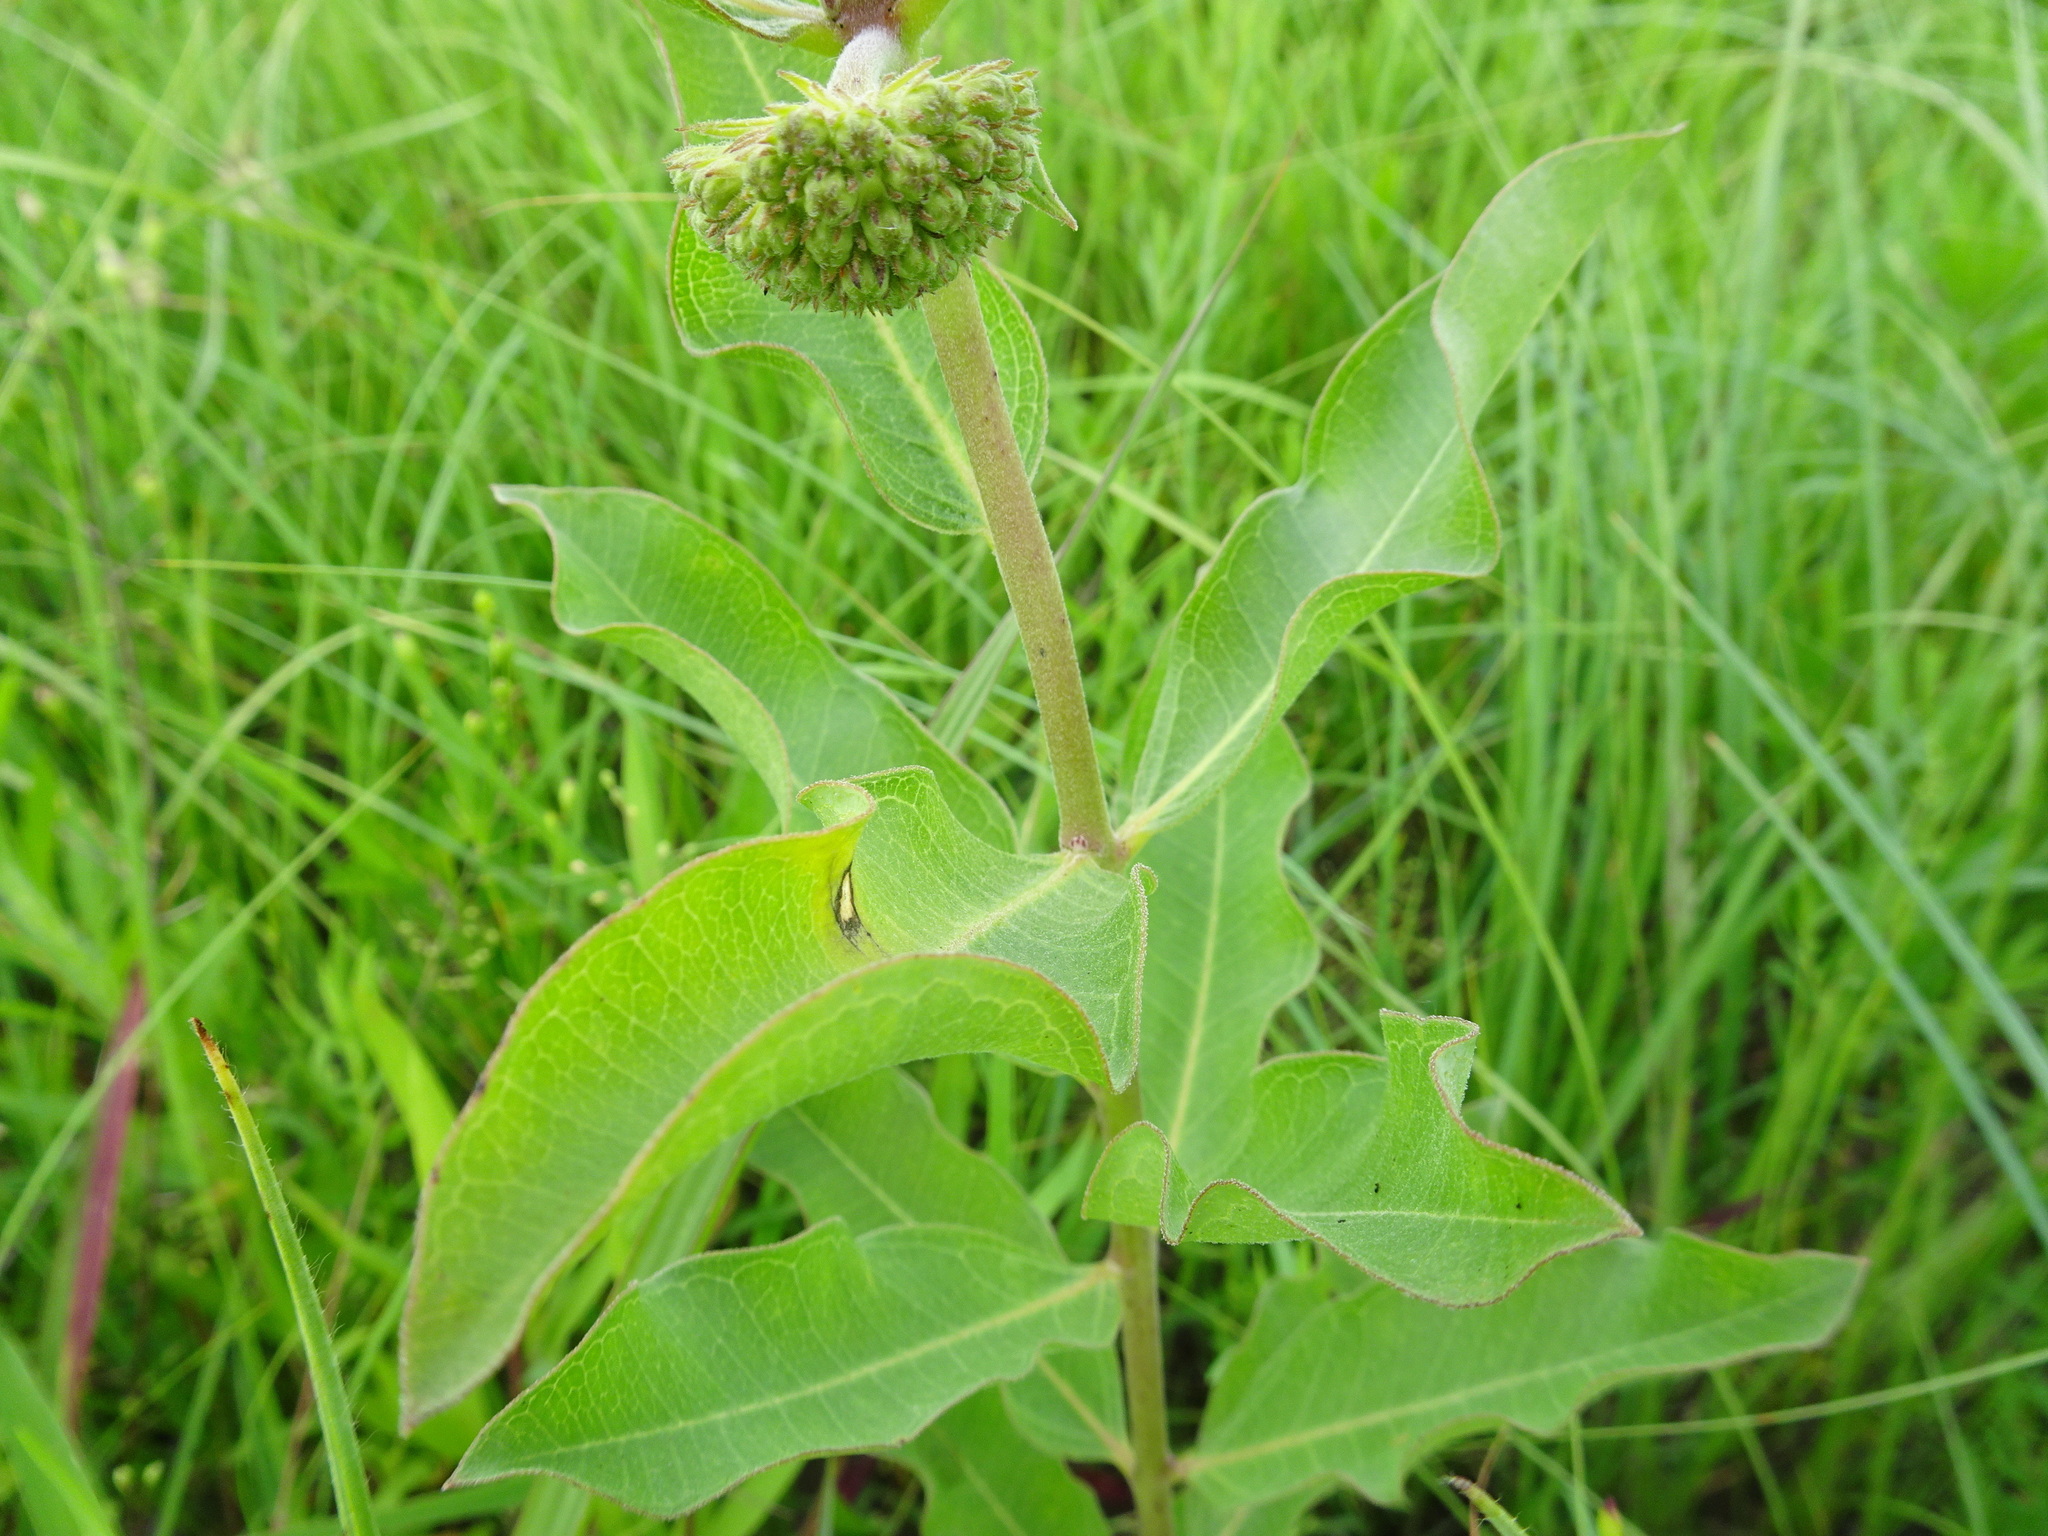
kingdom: Plantae
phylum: Tracheophyta
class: Magnoliopsida
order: Gentianales
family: Apocynaceae
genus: Asclepias
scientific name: Asclepias viridiflora
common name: Green comet milkweed
